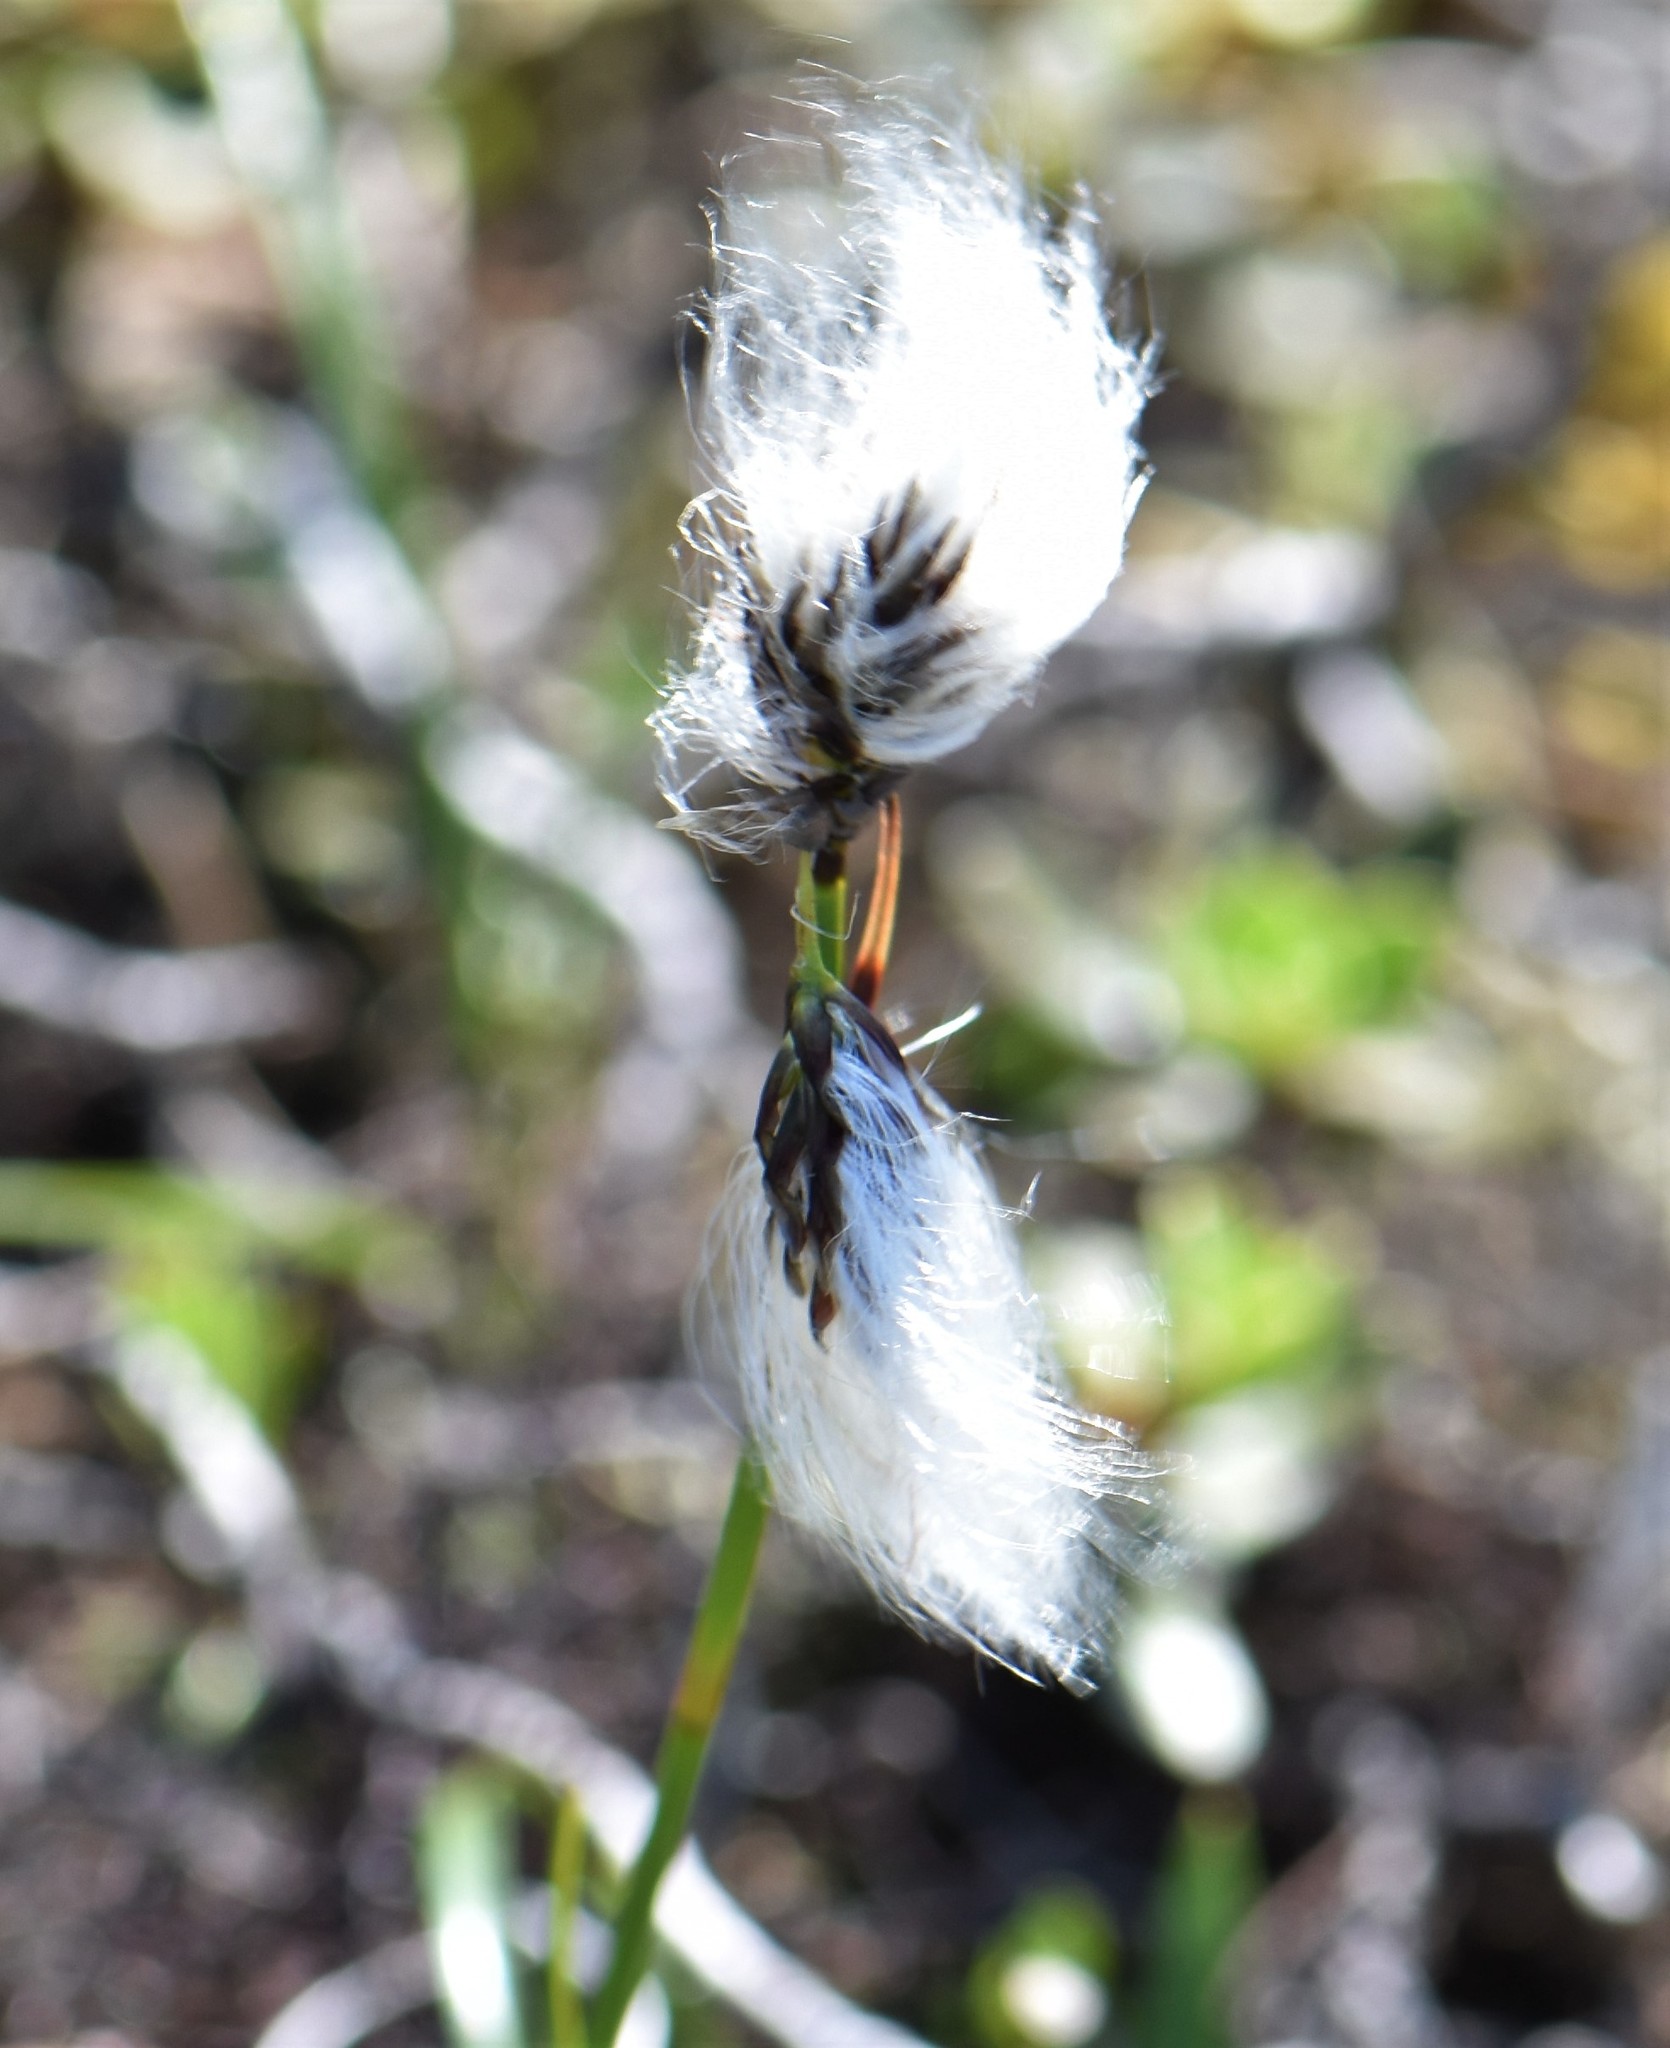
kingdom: Plantae
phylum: Tracheophyta
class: Liliopsida
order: Poales
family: Cyperaceae
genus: Eriophorum
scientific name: Eriophorum angustifolium
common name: Common cottongrass
